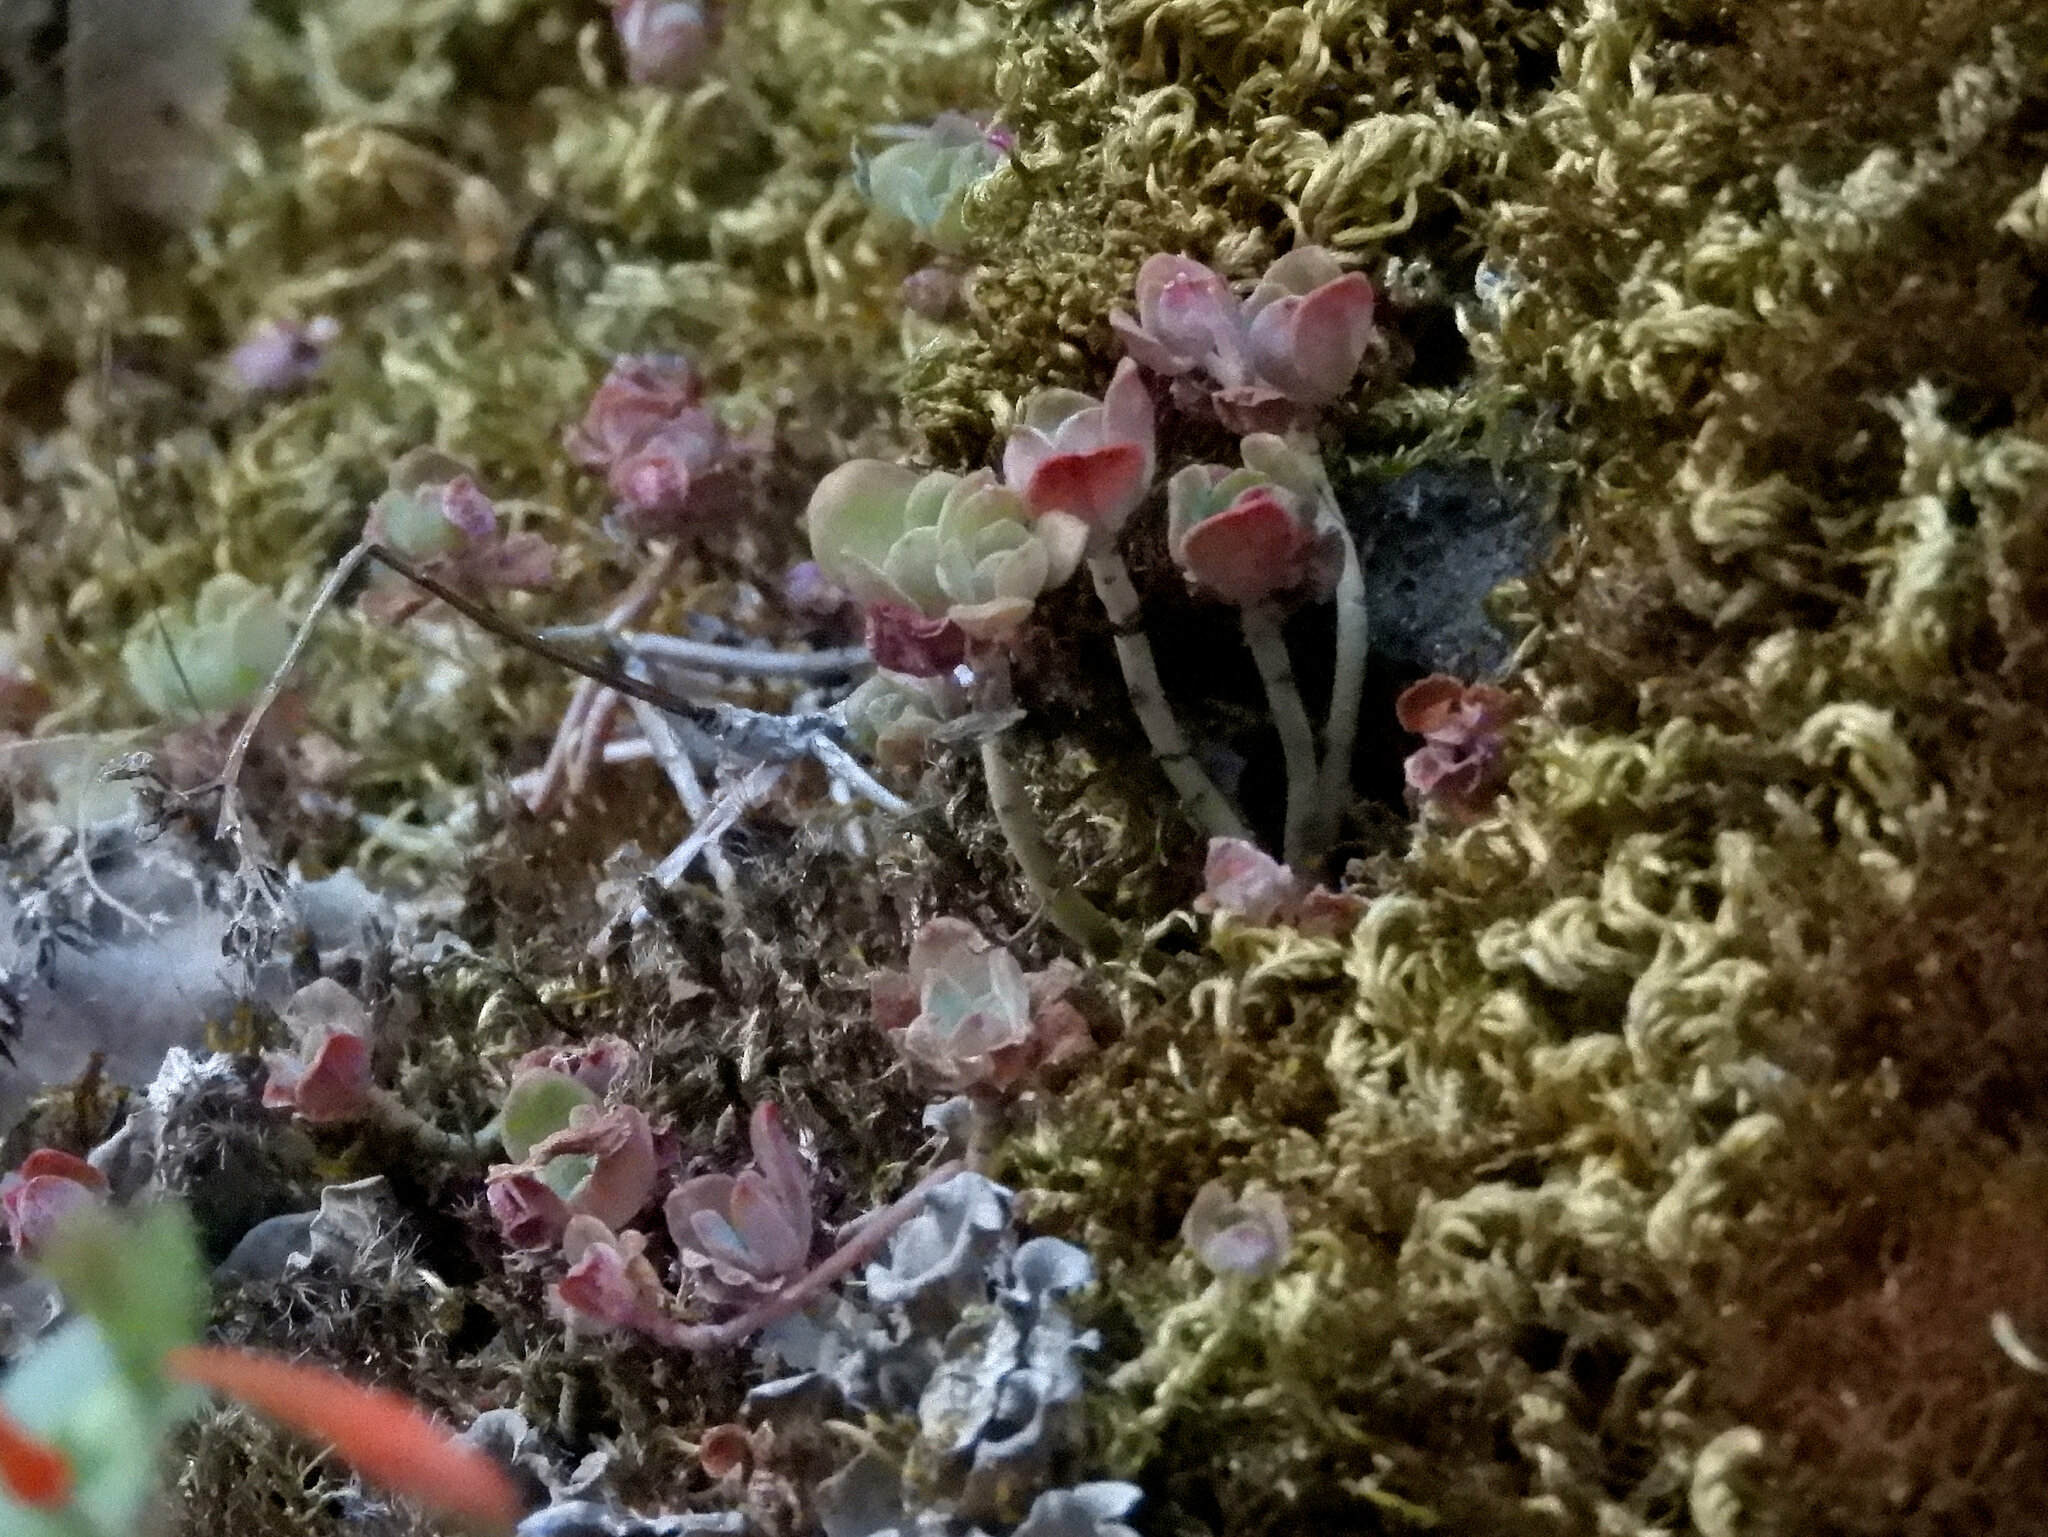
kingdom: Plantae
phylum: Tracheophyta
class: Magnoliopsida
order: Saxifragales
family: Crassulaceae
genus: Sedum
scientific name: Sedum spathulifolium
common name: Colorado stonecrop
